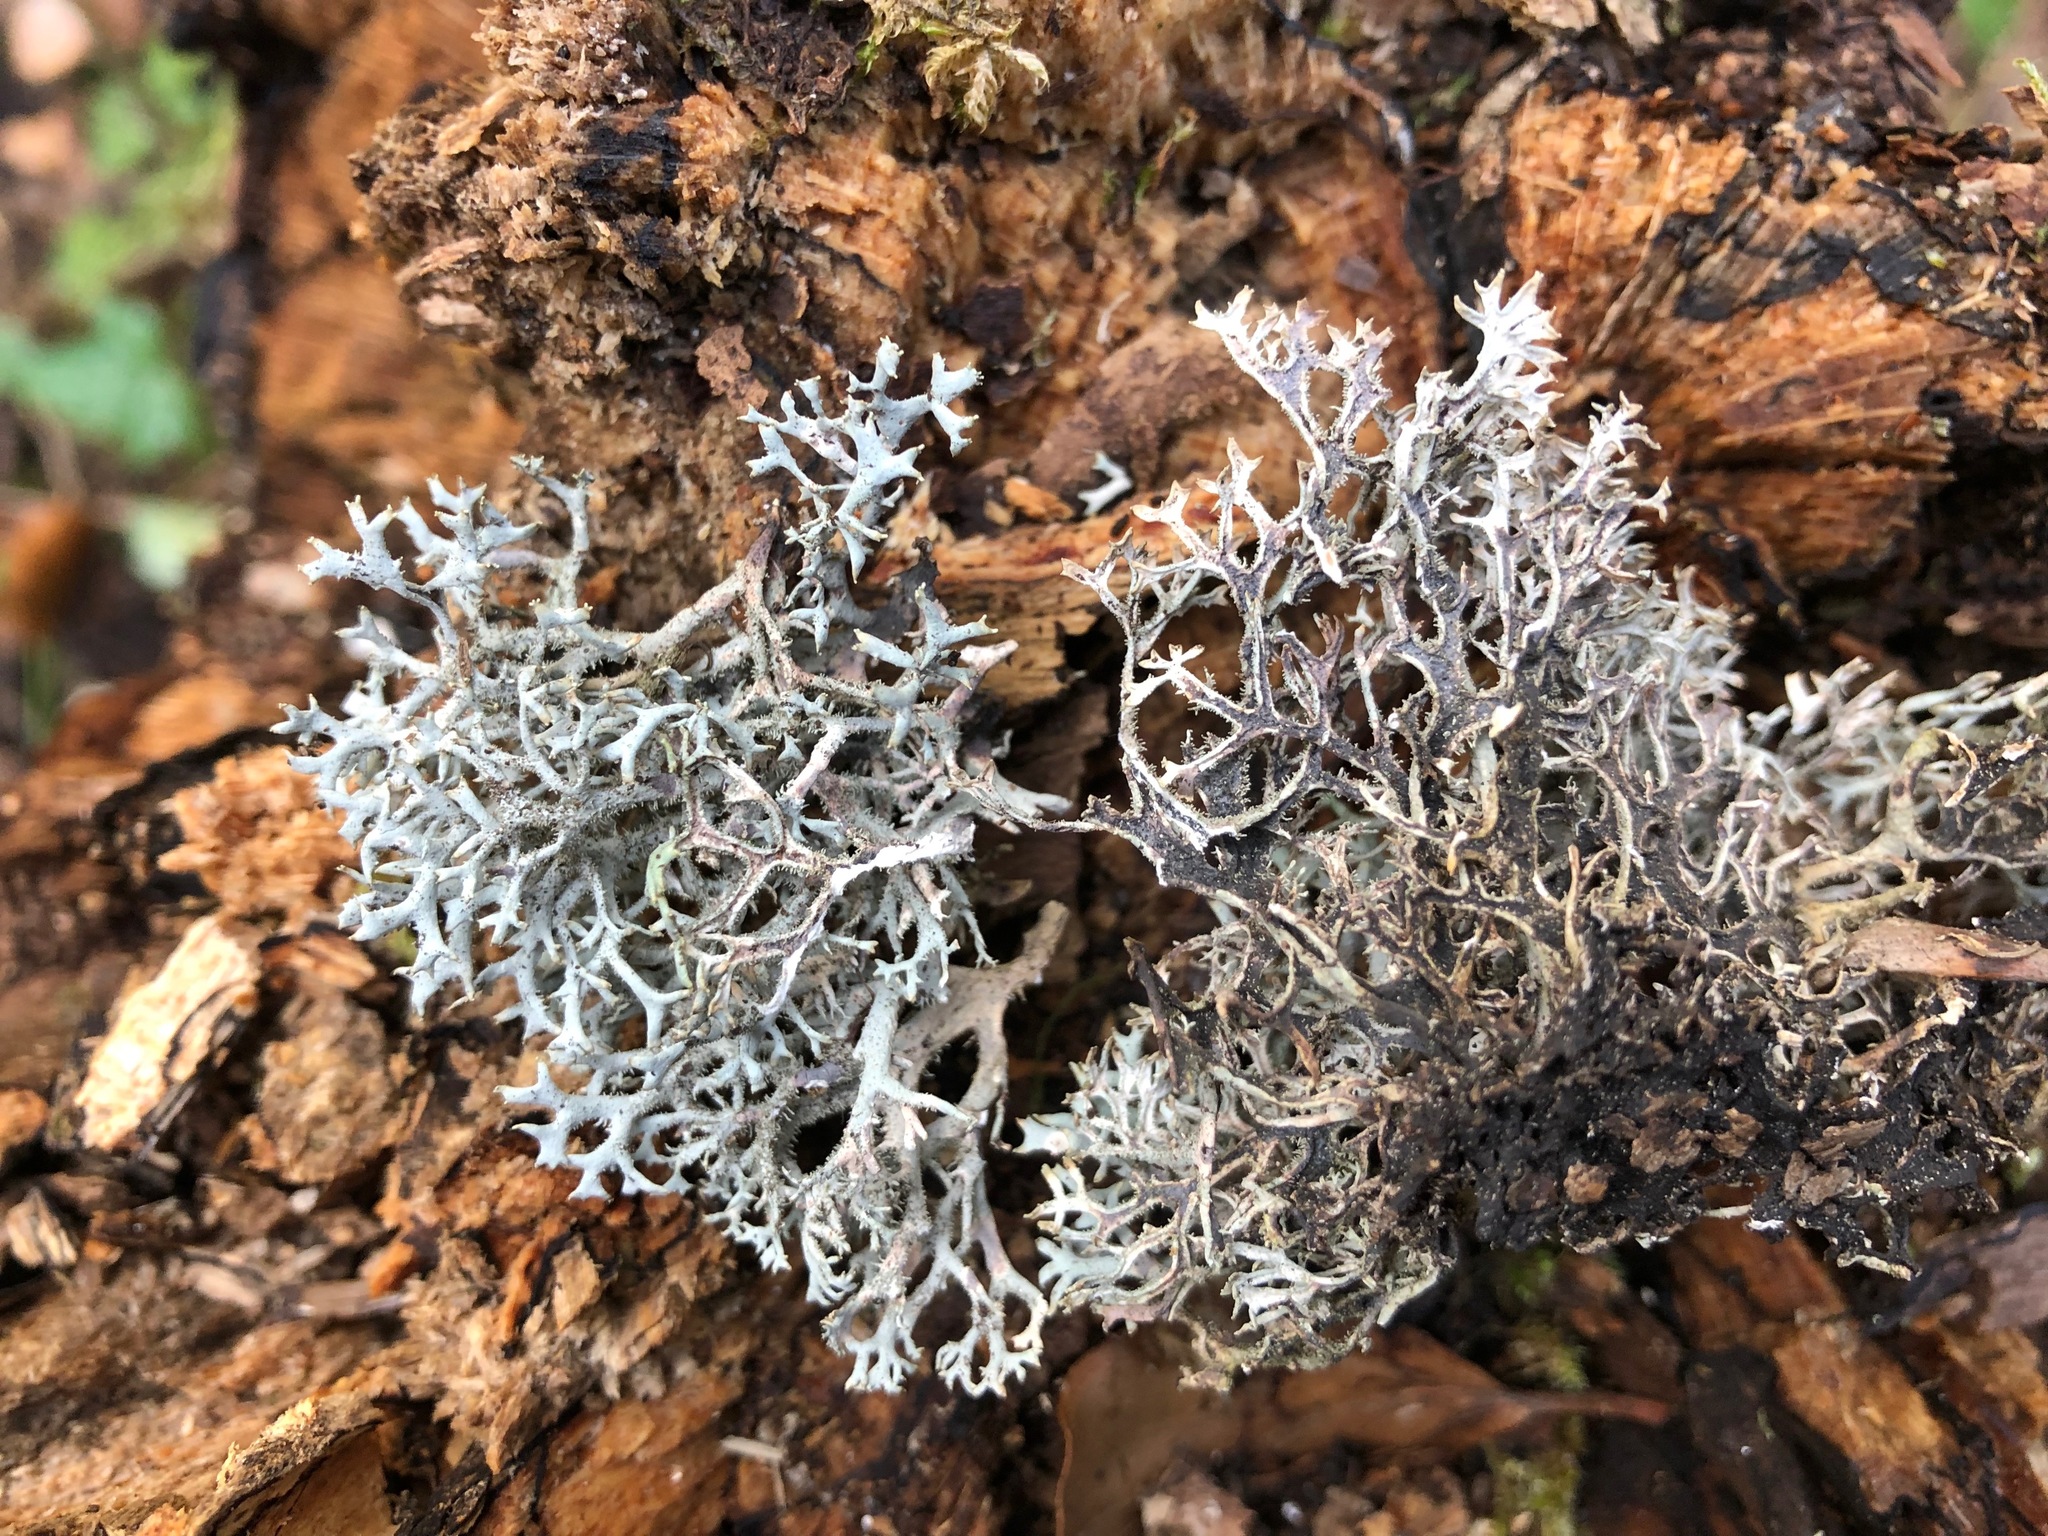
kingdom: Fungi
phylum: Ascomycota
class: Lecanoromycetes
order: Lecanorales
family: Parmeliaceae
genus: Pseudevernia
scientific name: Pseudevernia furfuracea
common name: Tree moss
